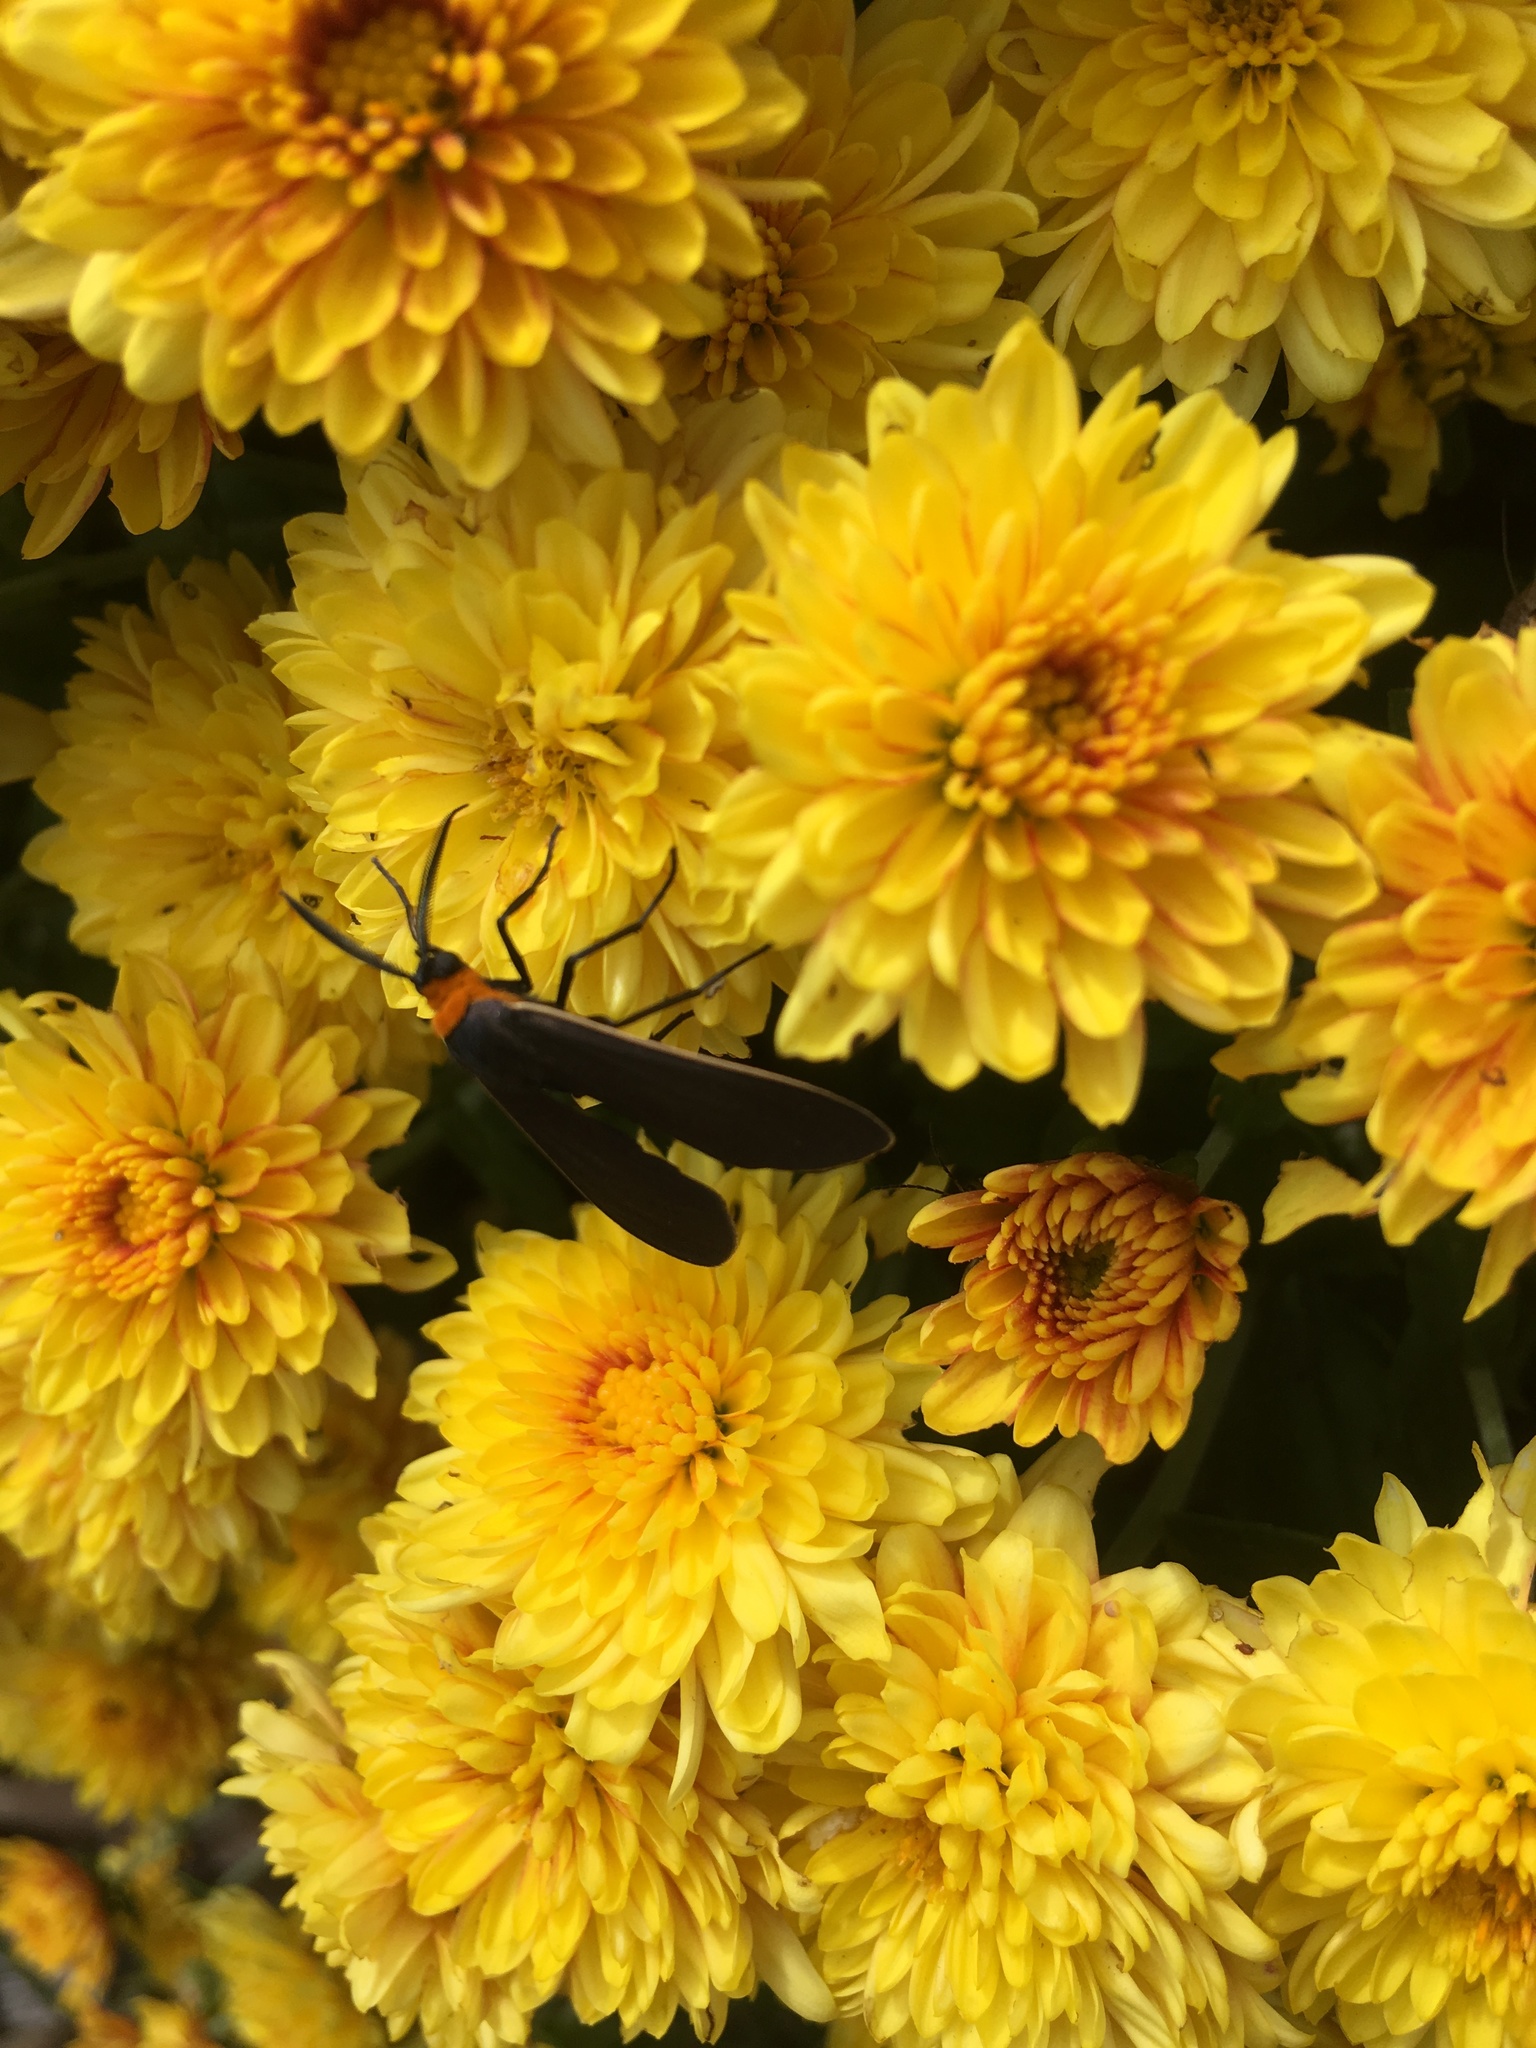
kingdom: Animalia
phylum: Arthropoda
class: Insecta
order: Lepidoptera
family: Erebidae
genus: Cisseps
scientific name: Cisseps fulvicollis
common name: Yellow-collared scape moth
